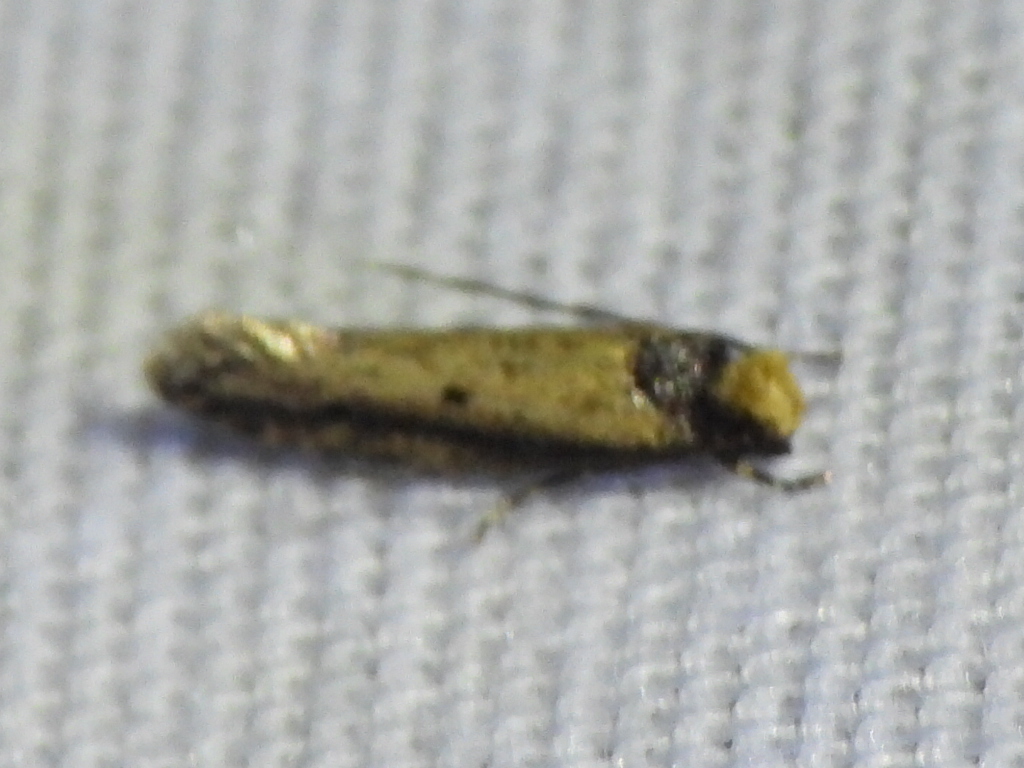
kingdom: Animalia
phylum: Arthropoda
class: Insecta
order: Lepidoptera
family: Tineidae
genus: Tinea
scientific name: Tinea apicimaculella
